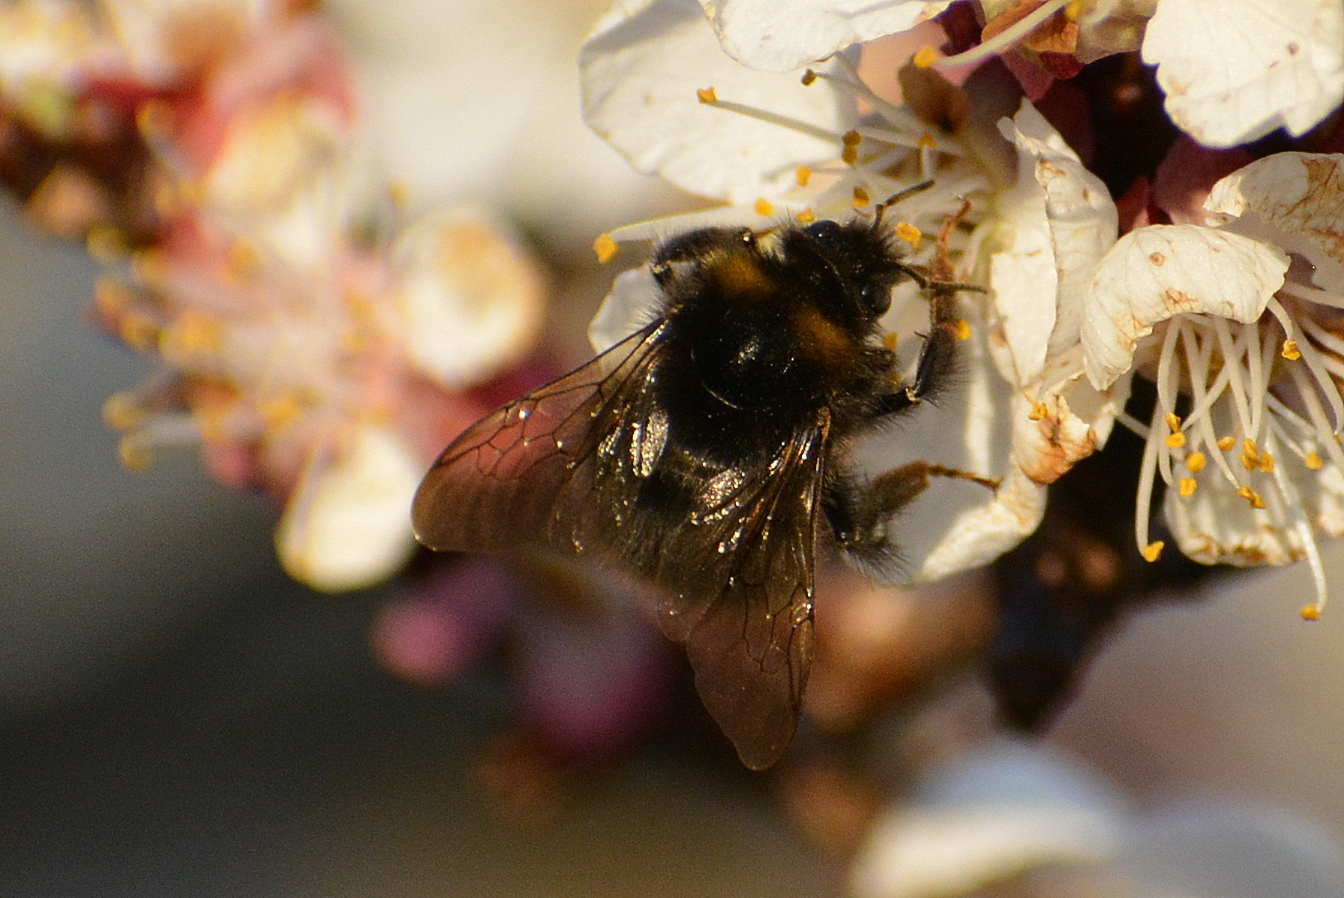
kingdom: Animalia
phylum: Arthropoda
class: Insecta
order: Hymenoptera
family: Apidae
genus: Bombus
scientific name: Bombus pratorum
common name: Early humble-bee
